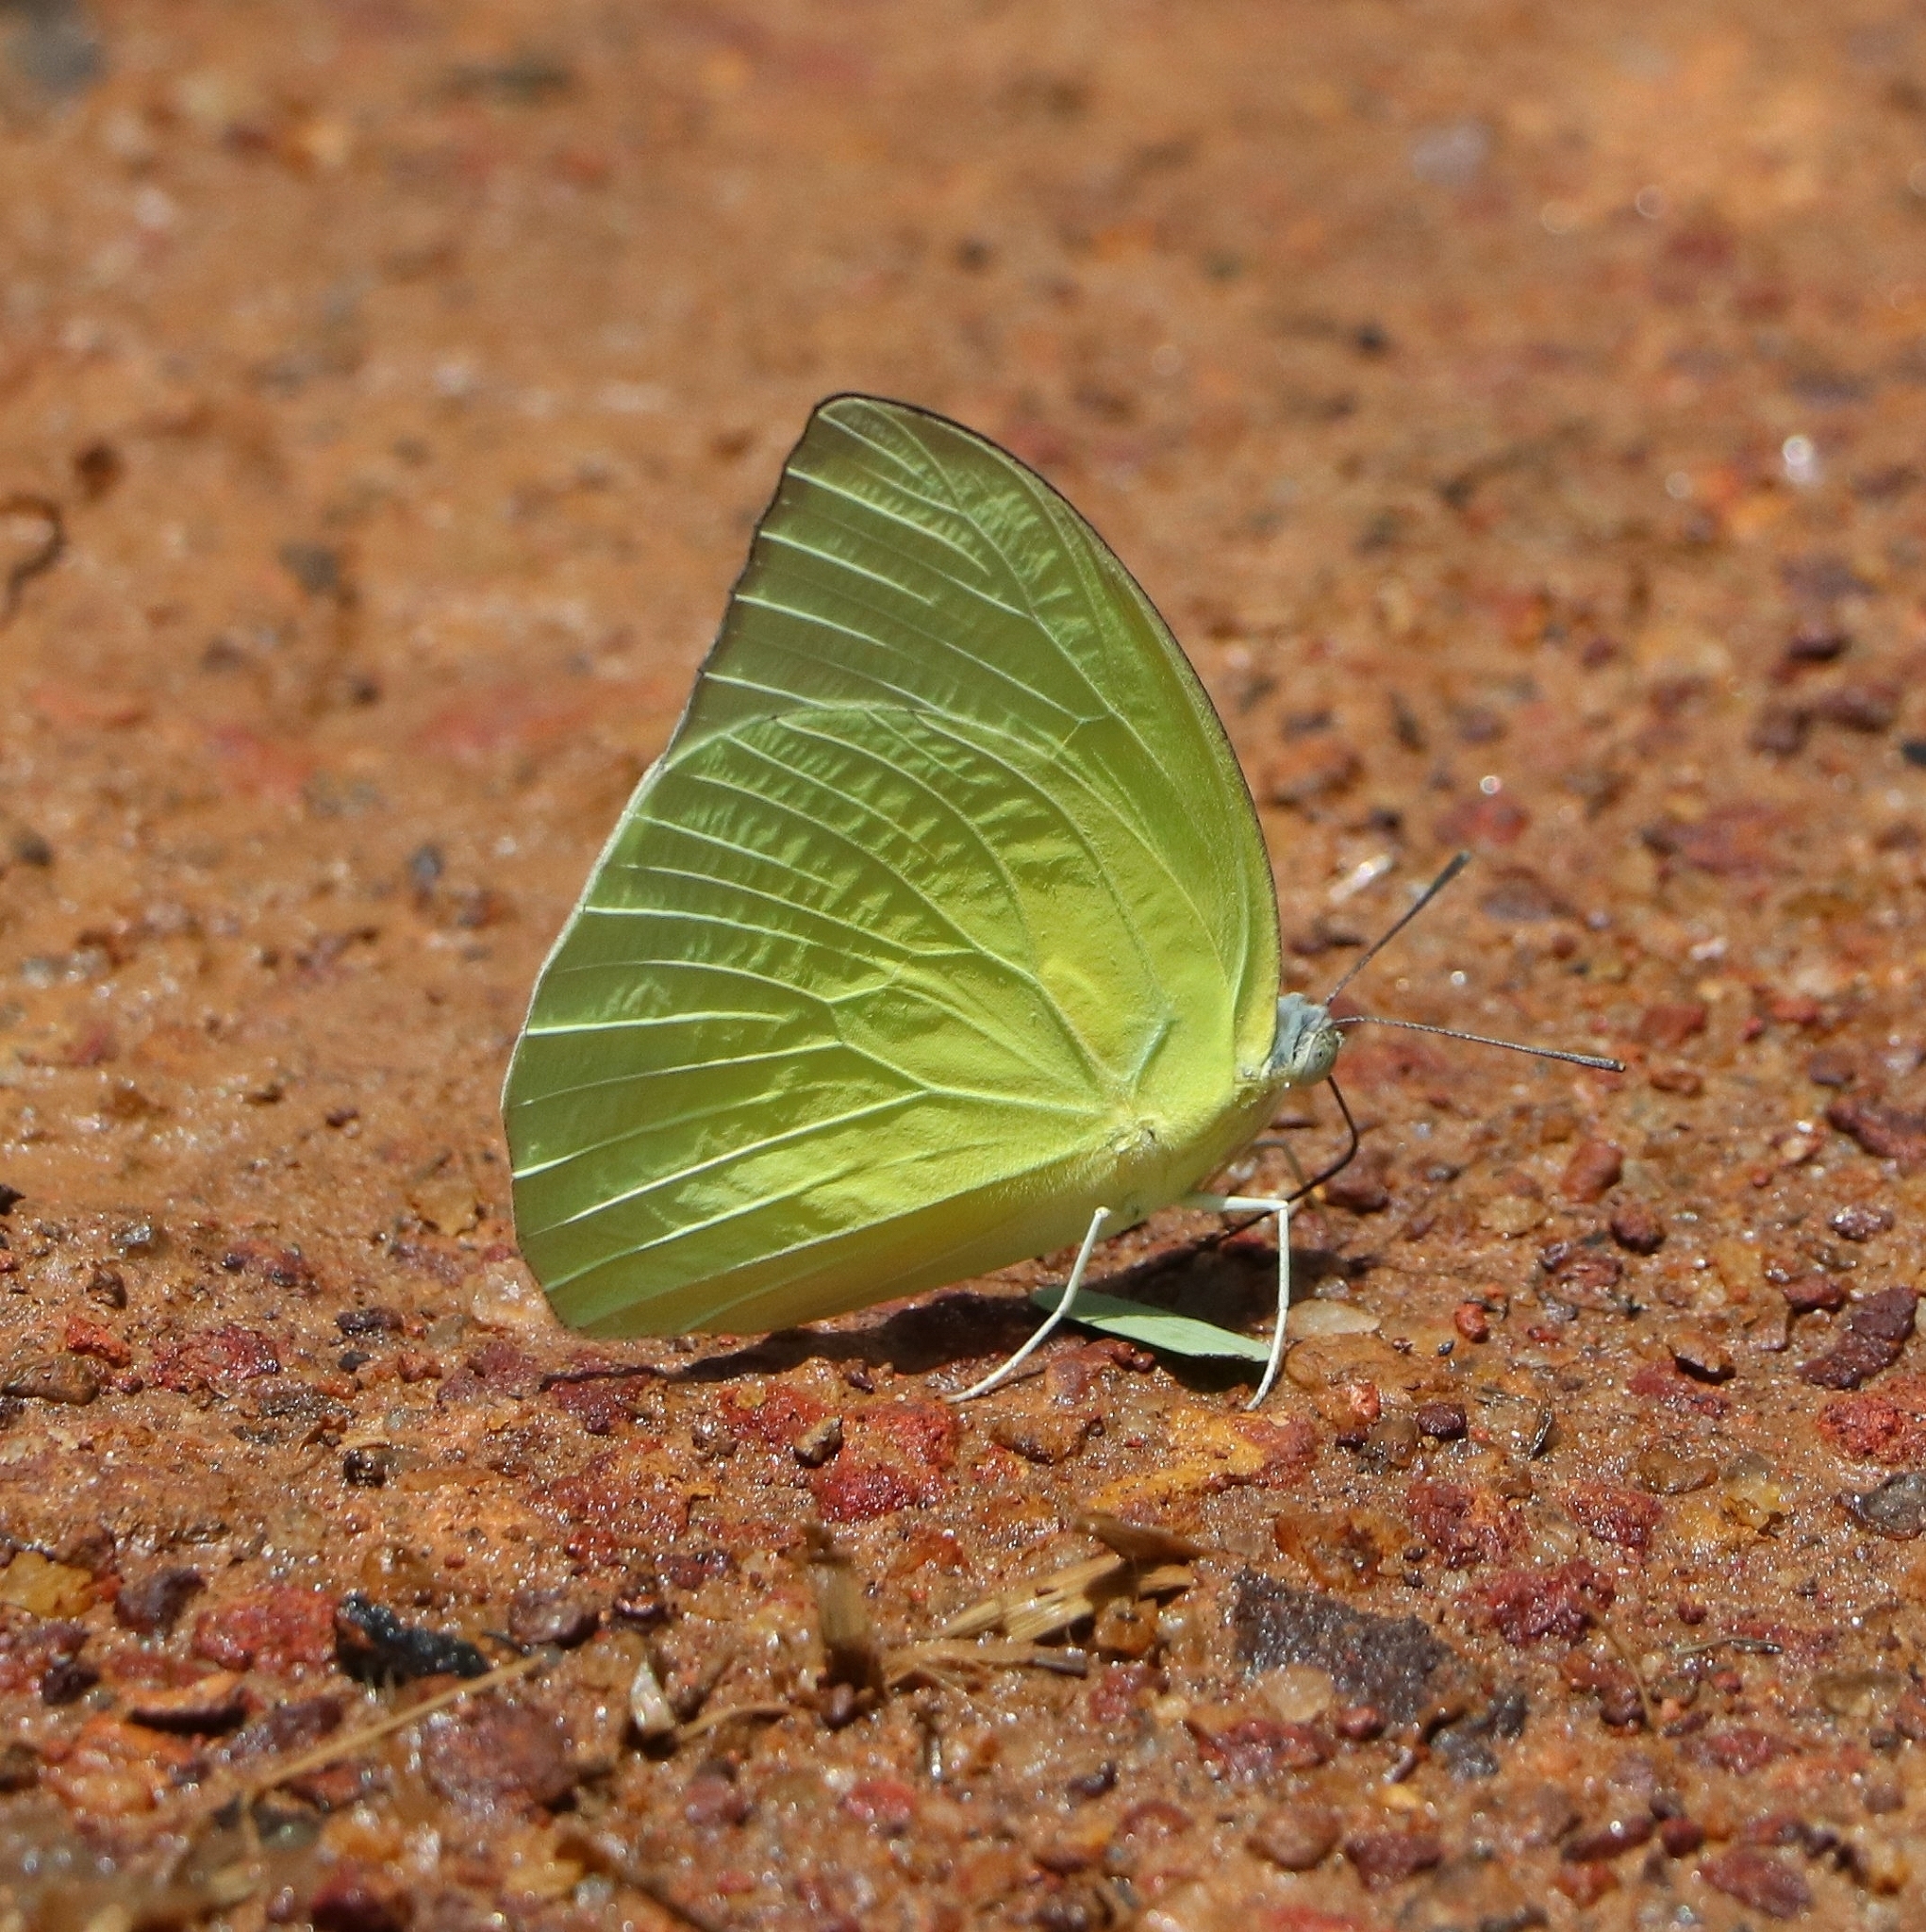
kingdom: Animalia
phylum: Arthropoda
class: Insecta
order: Lepidoptera
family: Pieridae
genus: Catopsilia
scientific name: Catopsilia pomona
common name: Common emigrant
